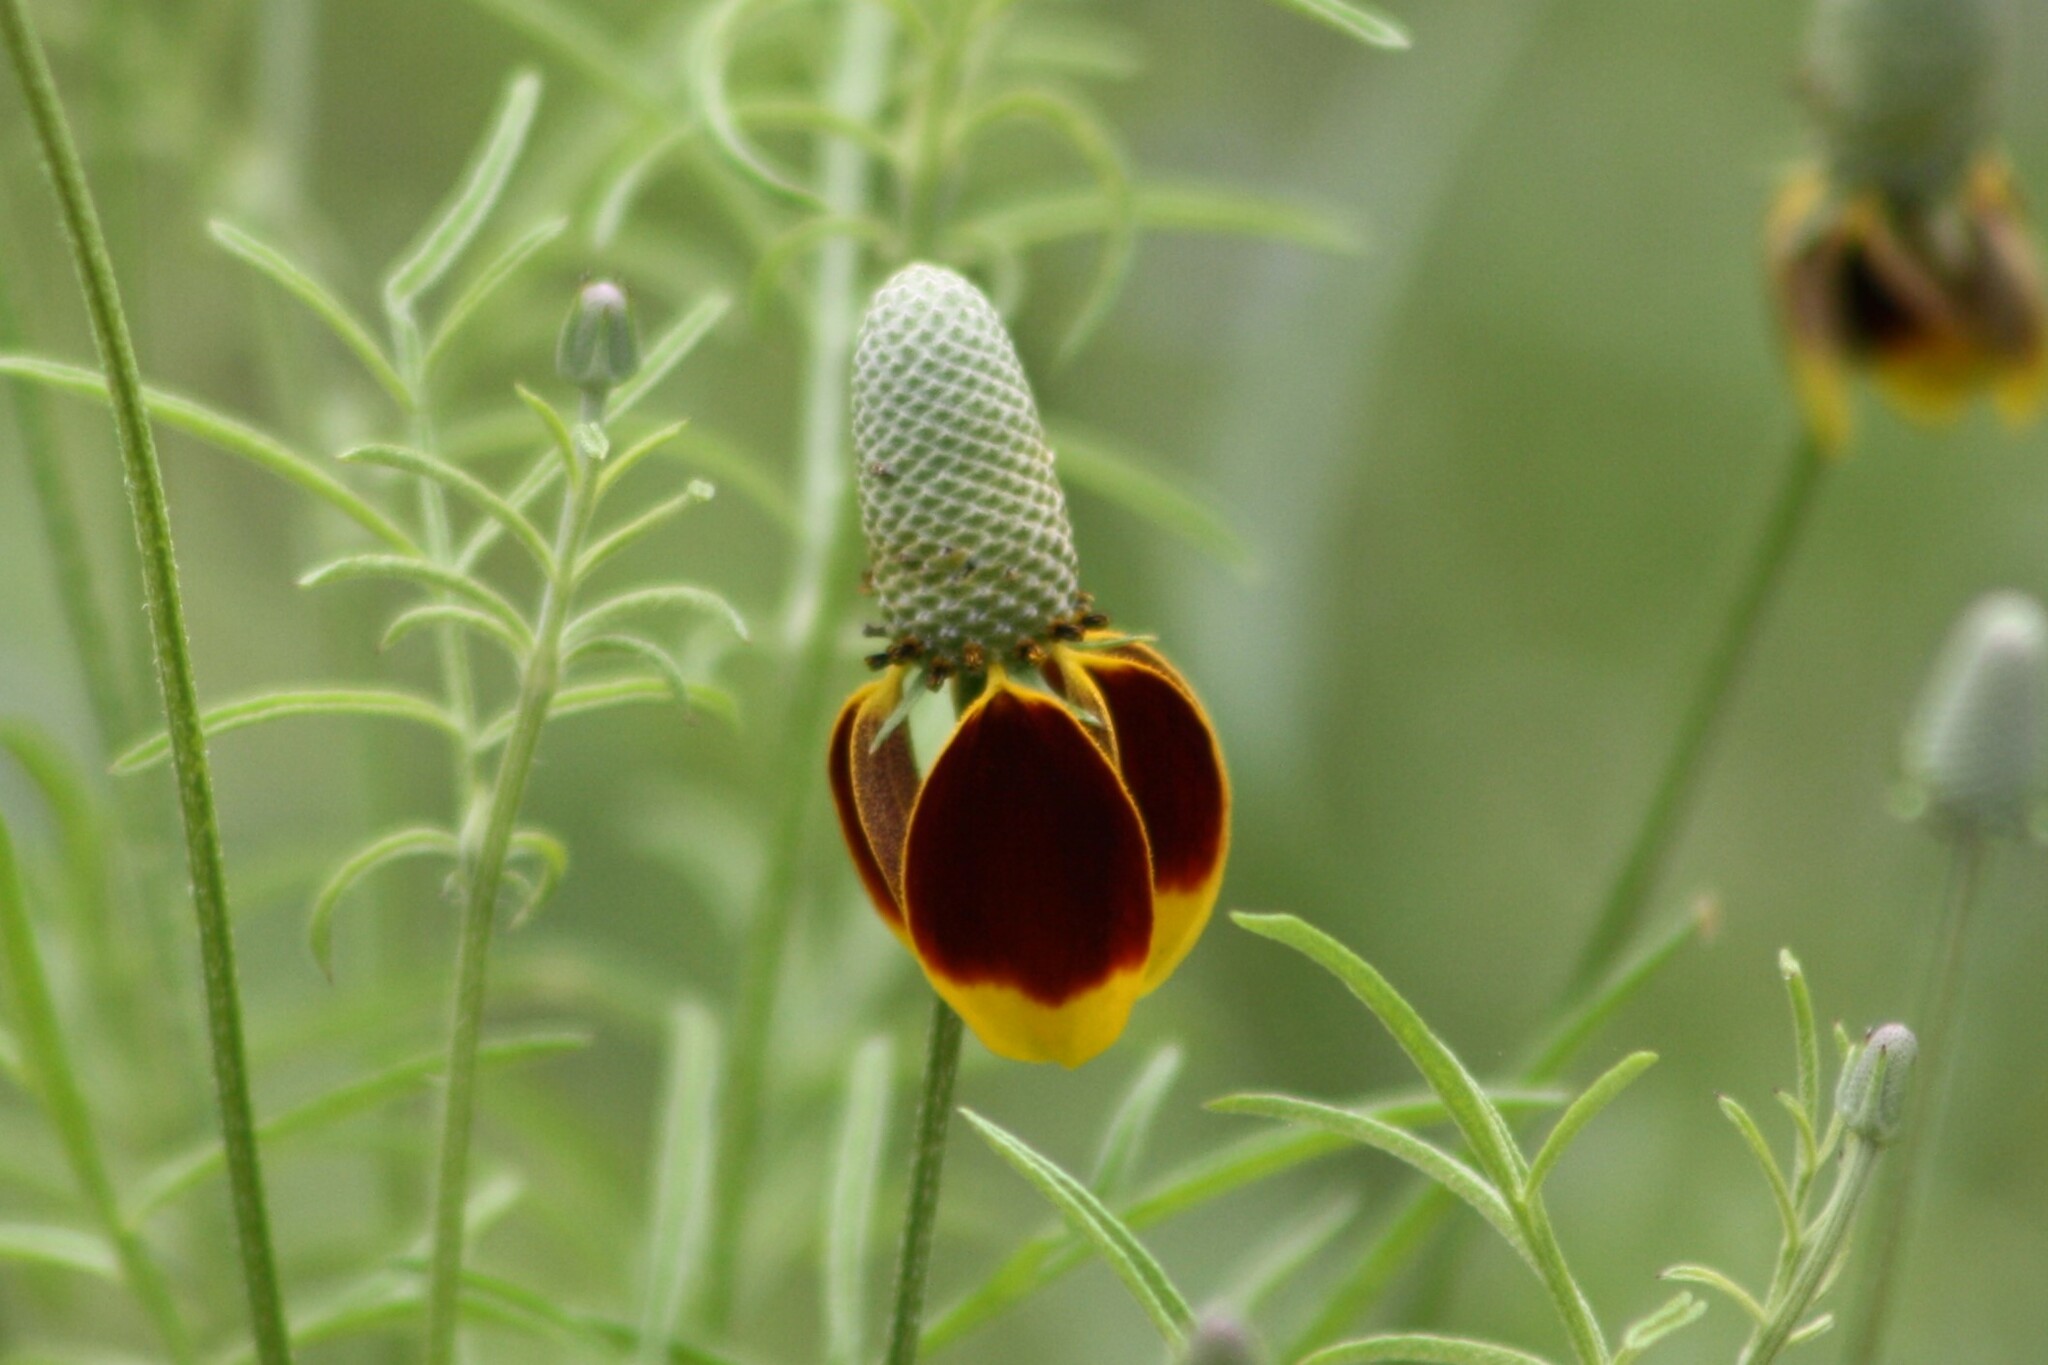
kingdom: Plantae
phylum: Tracheophyta
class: Magnoliopsida
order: Asterales
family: Asteraceae
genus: Ratibida
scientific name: Ratibida columnifera
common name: Prairie coneflower
